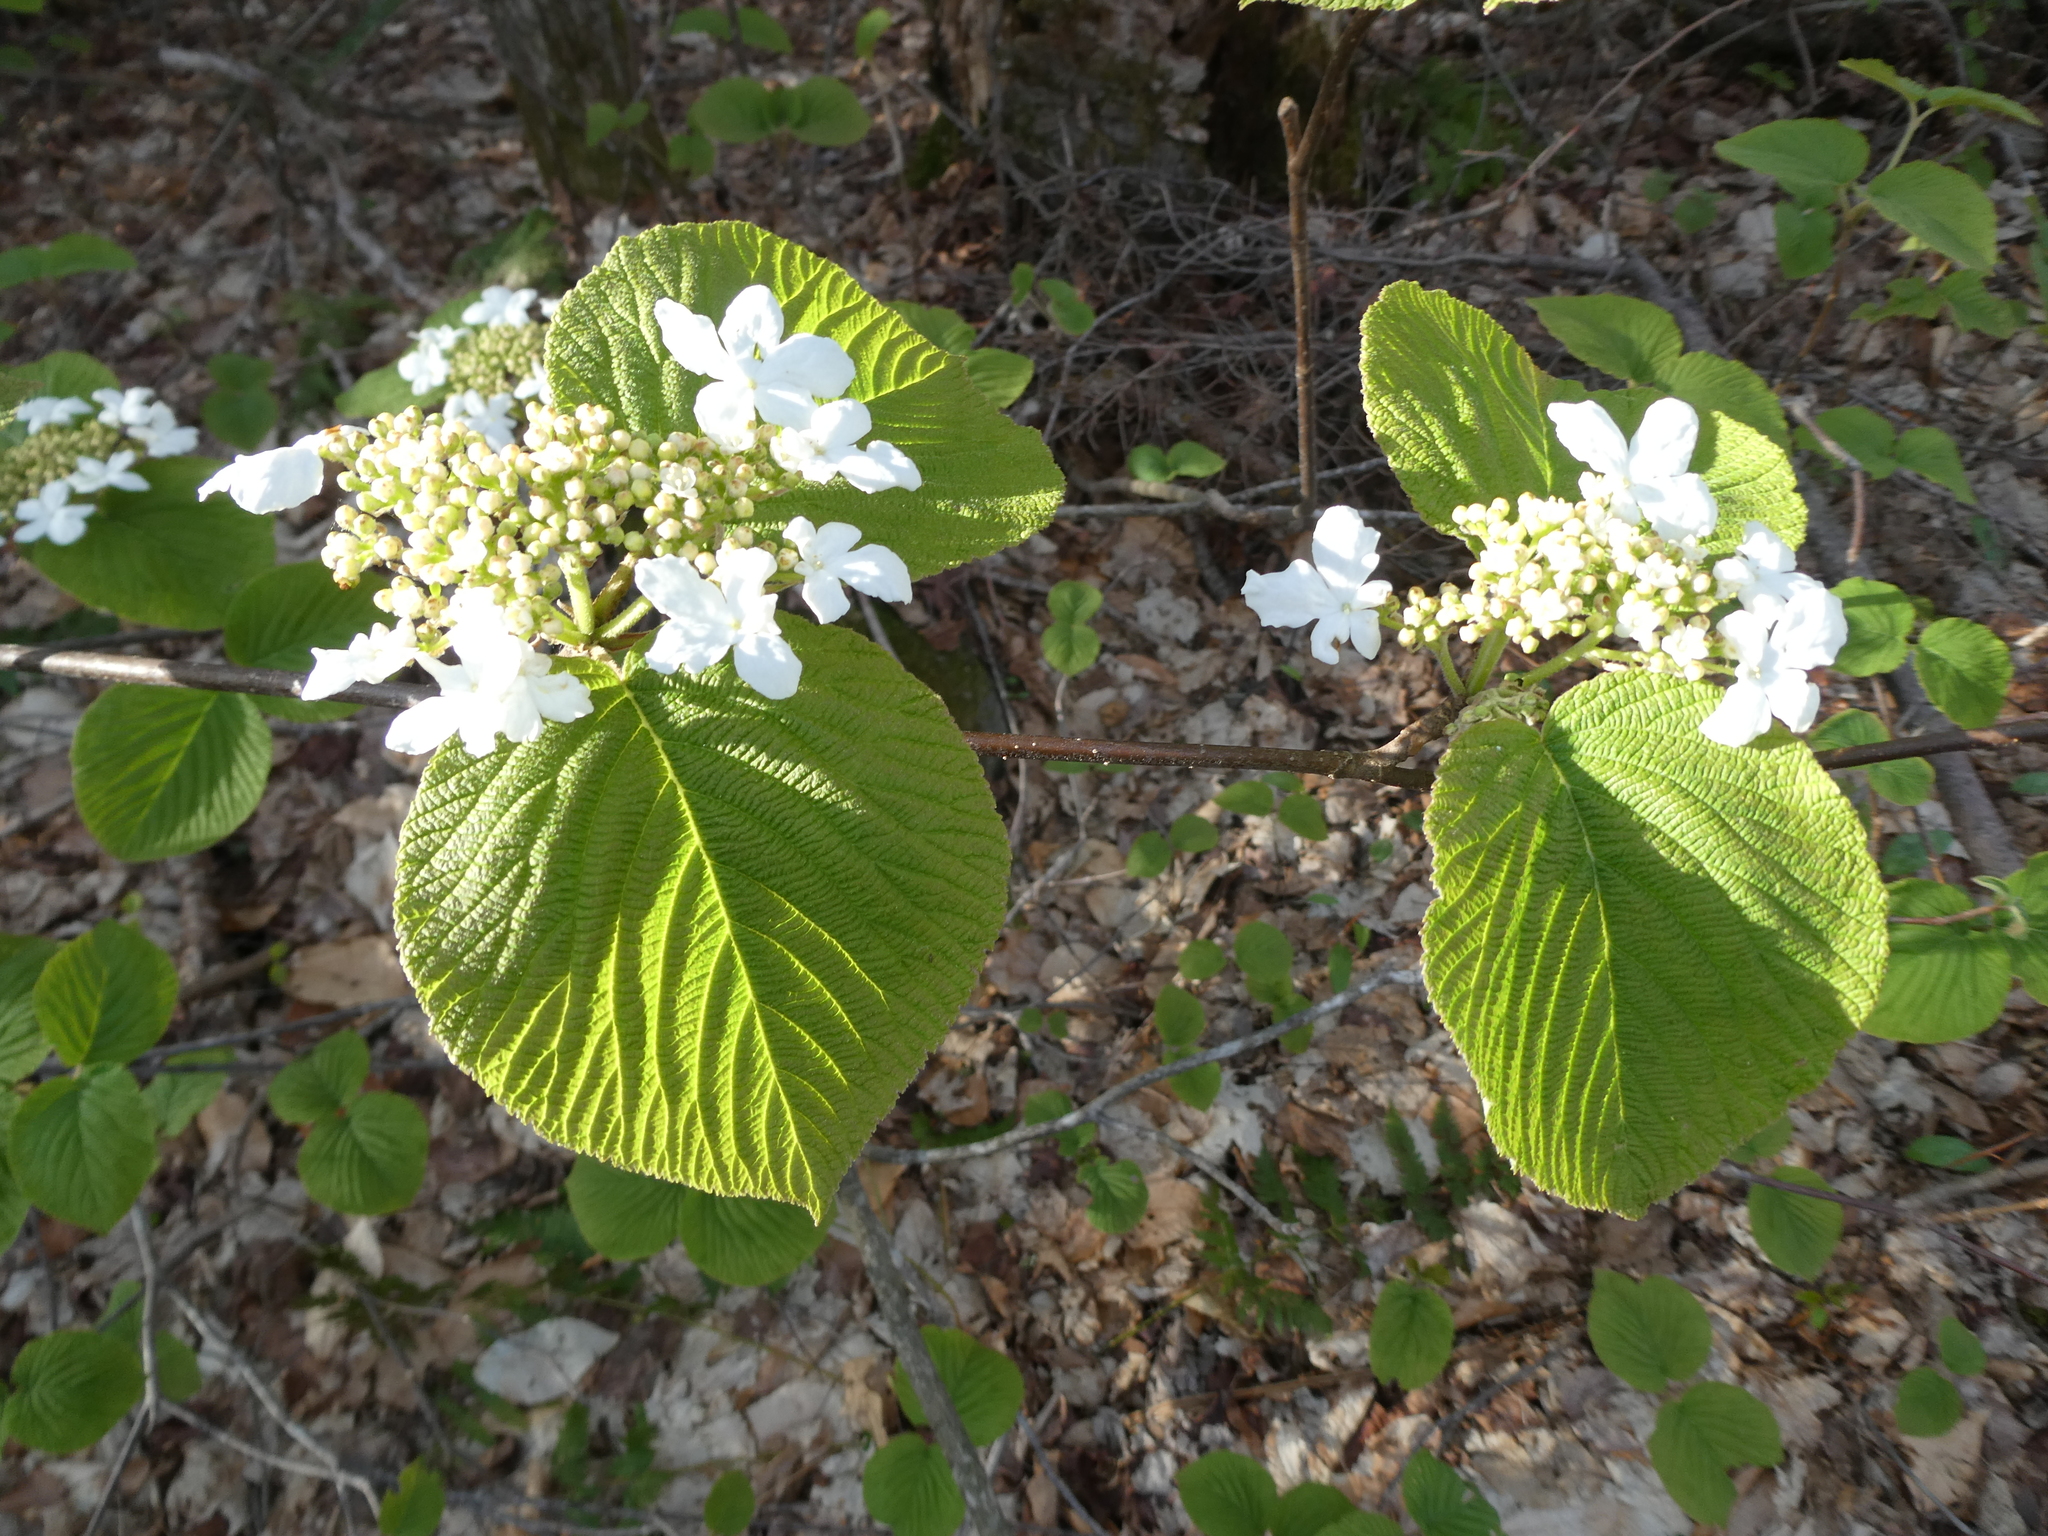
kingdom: Plantae
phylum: Tracheophyta
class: Magnoliopsida
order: Dipsacales
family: Viburnaceae
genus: Viburnum
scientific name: Viburnum lantanoides
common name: Hobblebush
